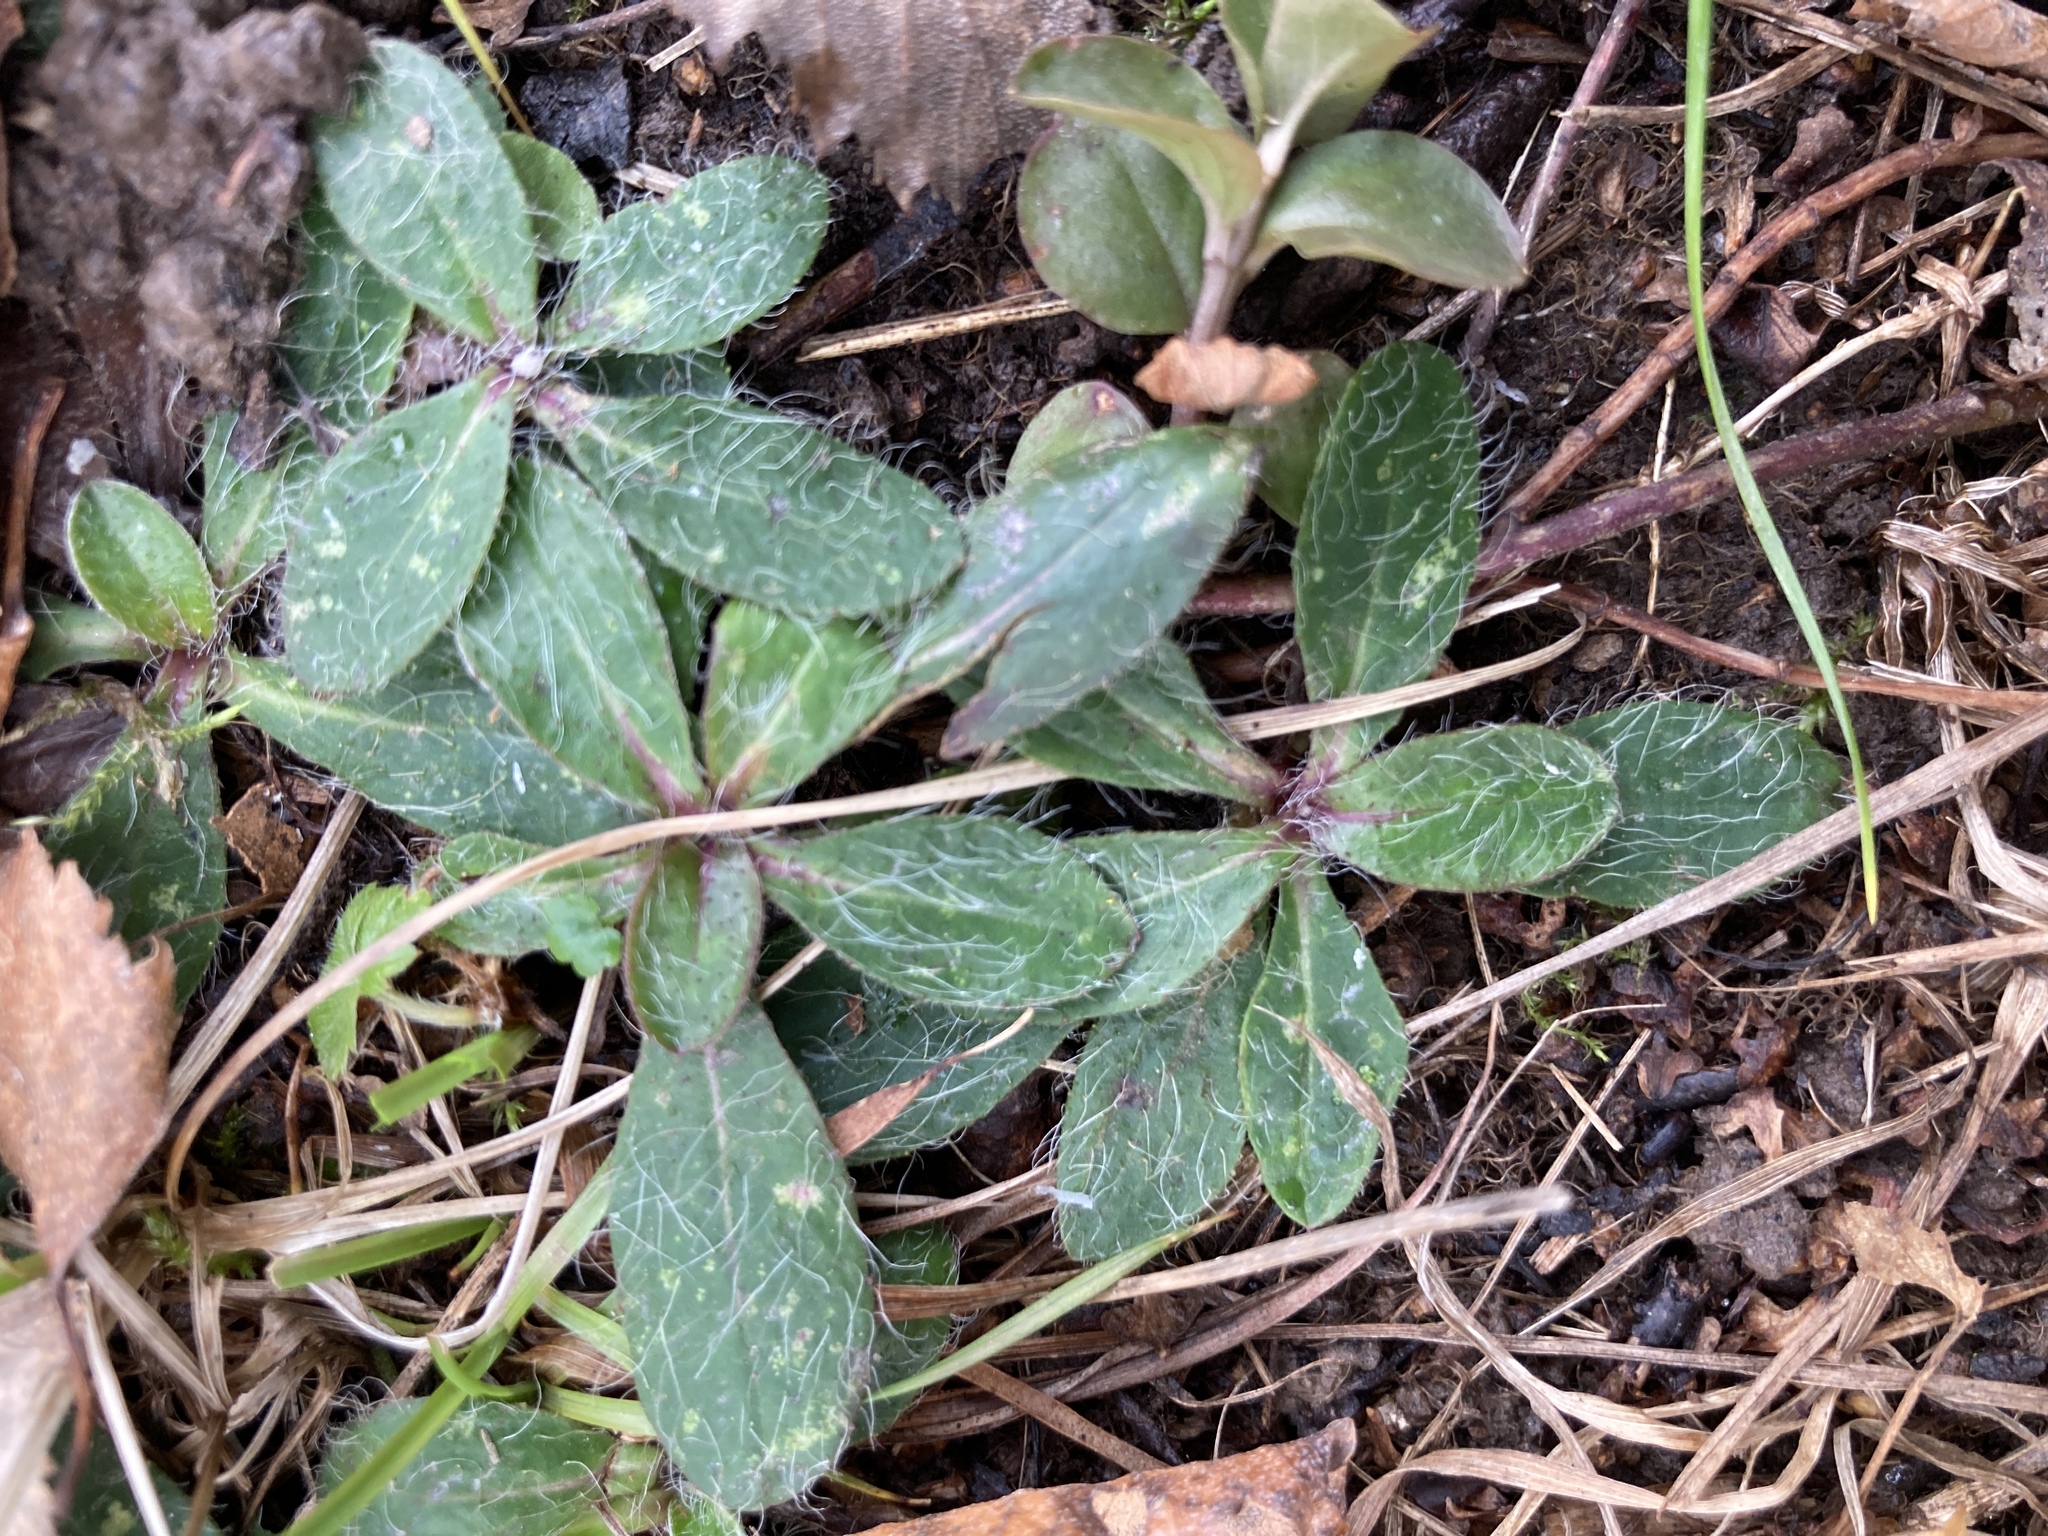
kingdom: Plantae
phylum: Tracheophyta
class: Magnoliopsida
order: Asterales
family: Asteraceae
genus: Pilosella
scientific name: Pilosella
